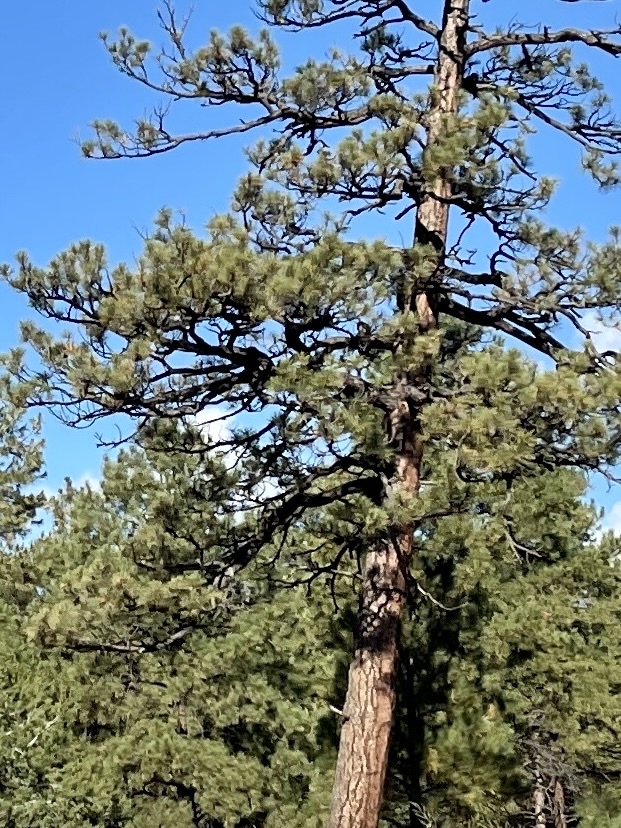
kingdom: Plantae
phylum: Tracheophyta
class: Pinopsida
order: Pinales
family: Pinaceae
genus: Pinus
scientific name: Pinus ponderosa
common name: Western yellow-pine
